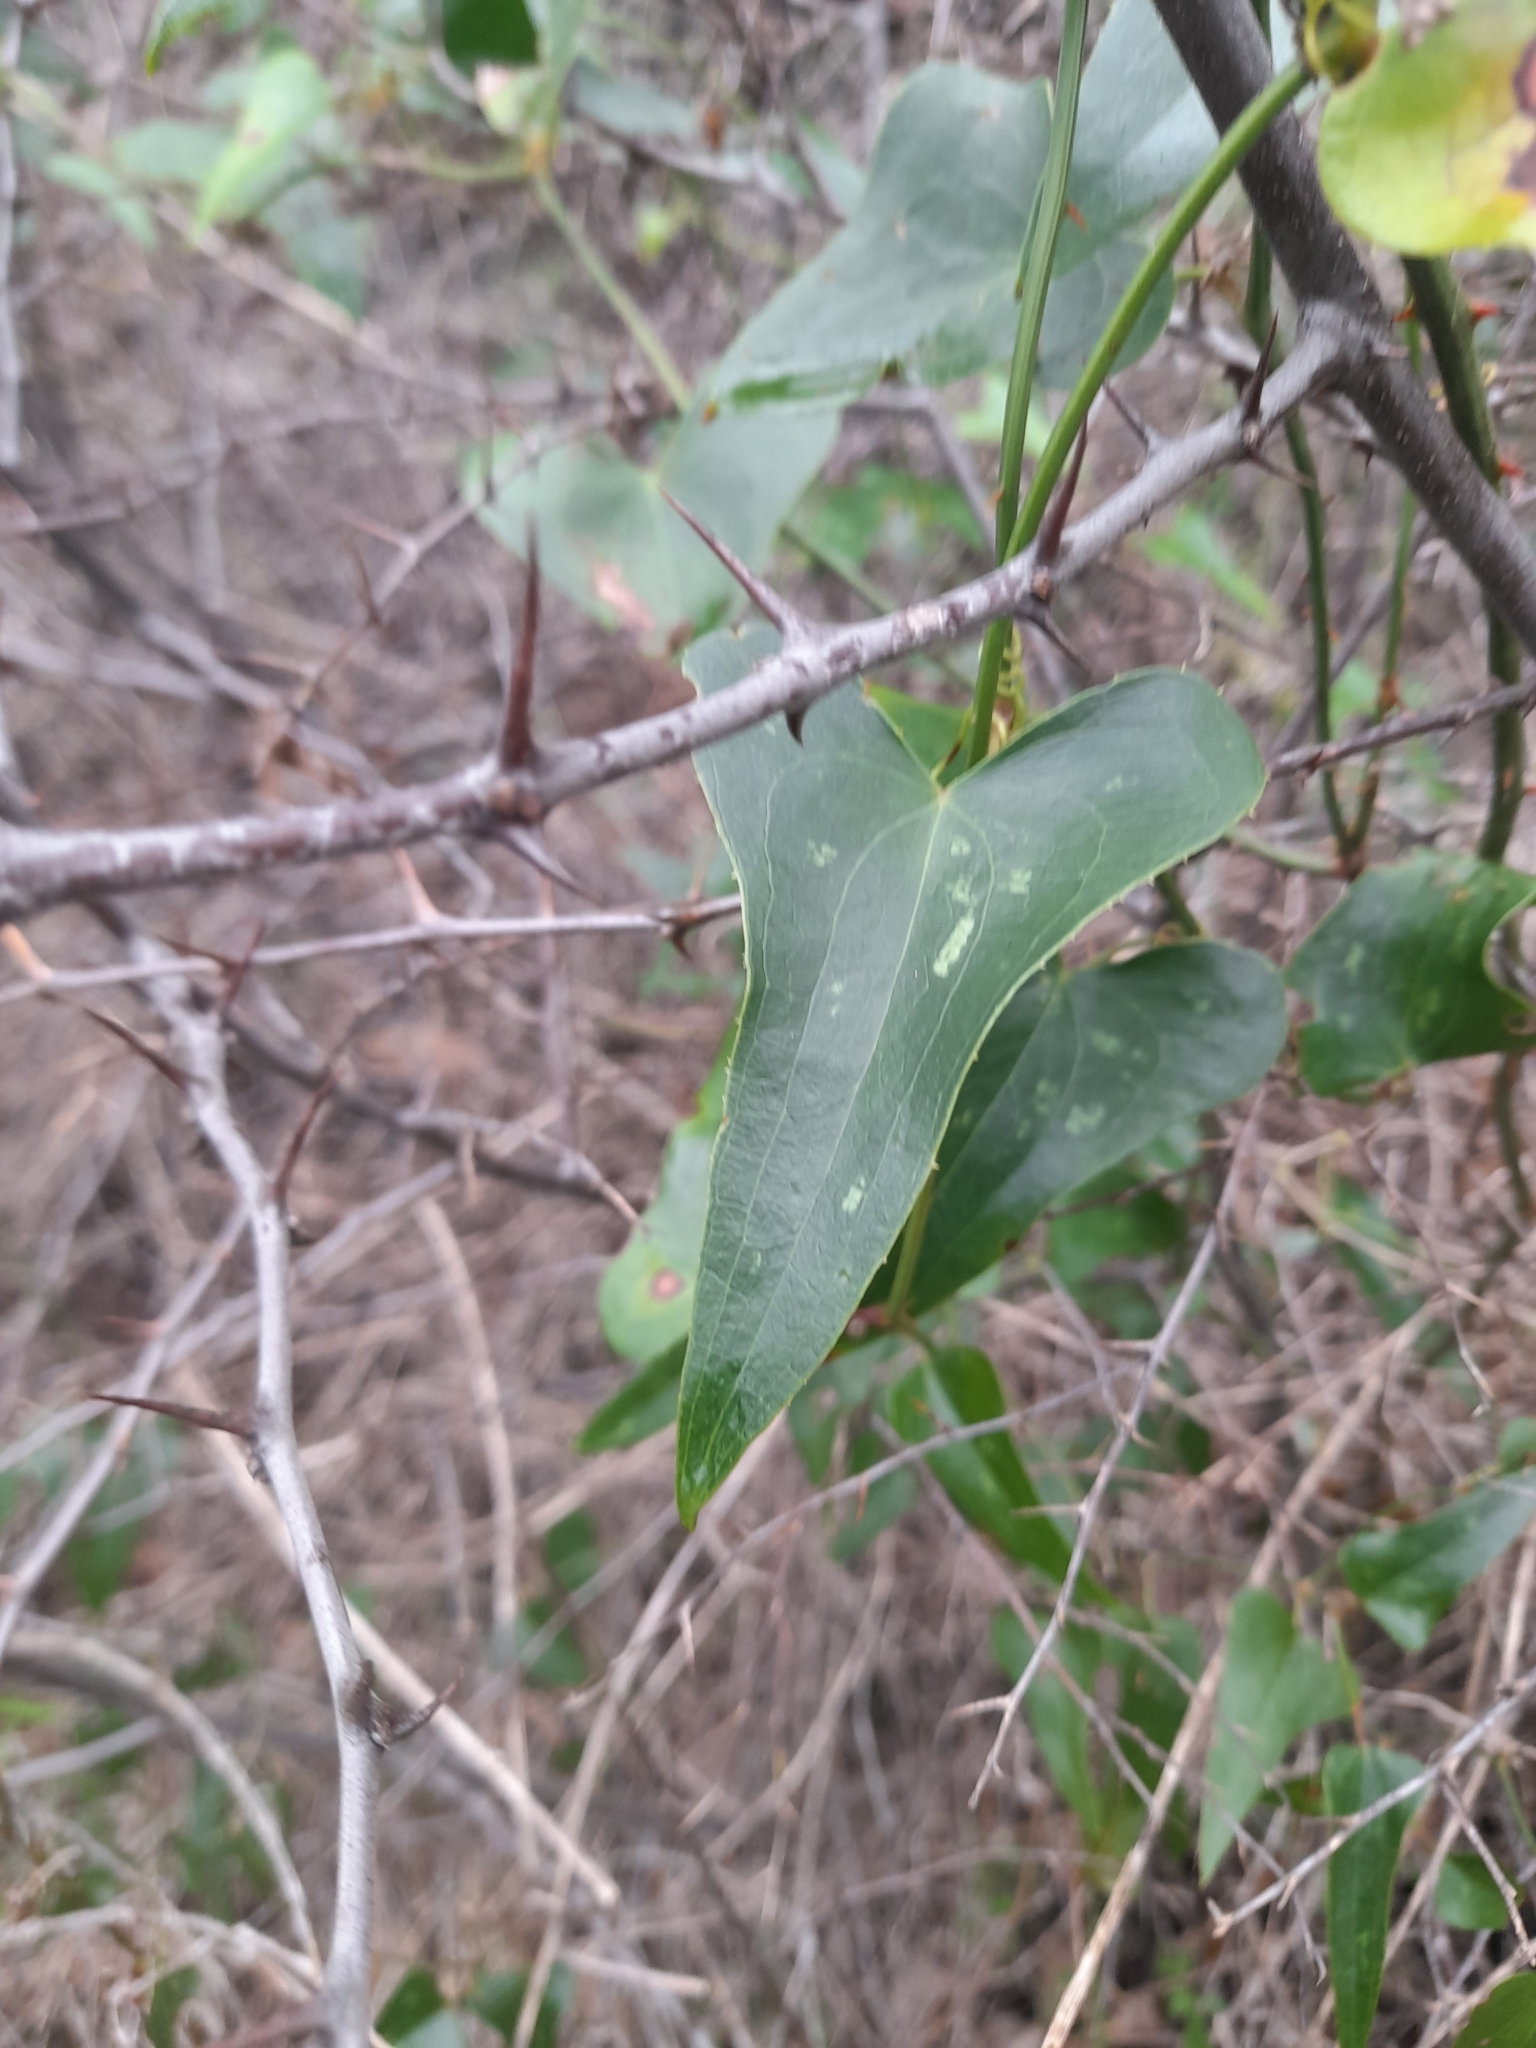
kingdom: Plantae
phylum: Tracheophyta
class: Liliopsida
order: Liliales
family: Smilacaceae
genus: Smilax
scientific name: Smilax aspera
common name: Common smilax
